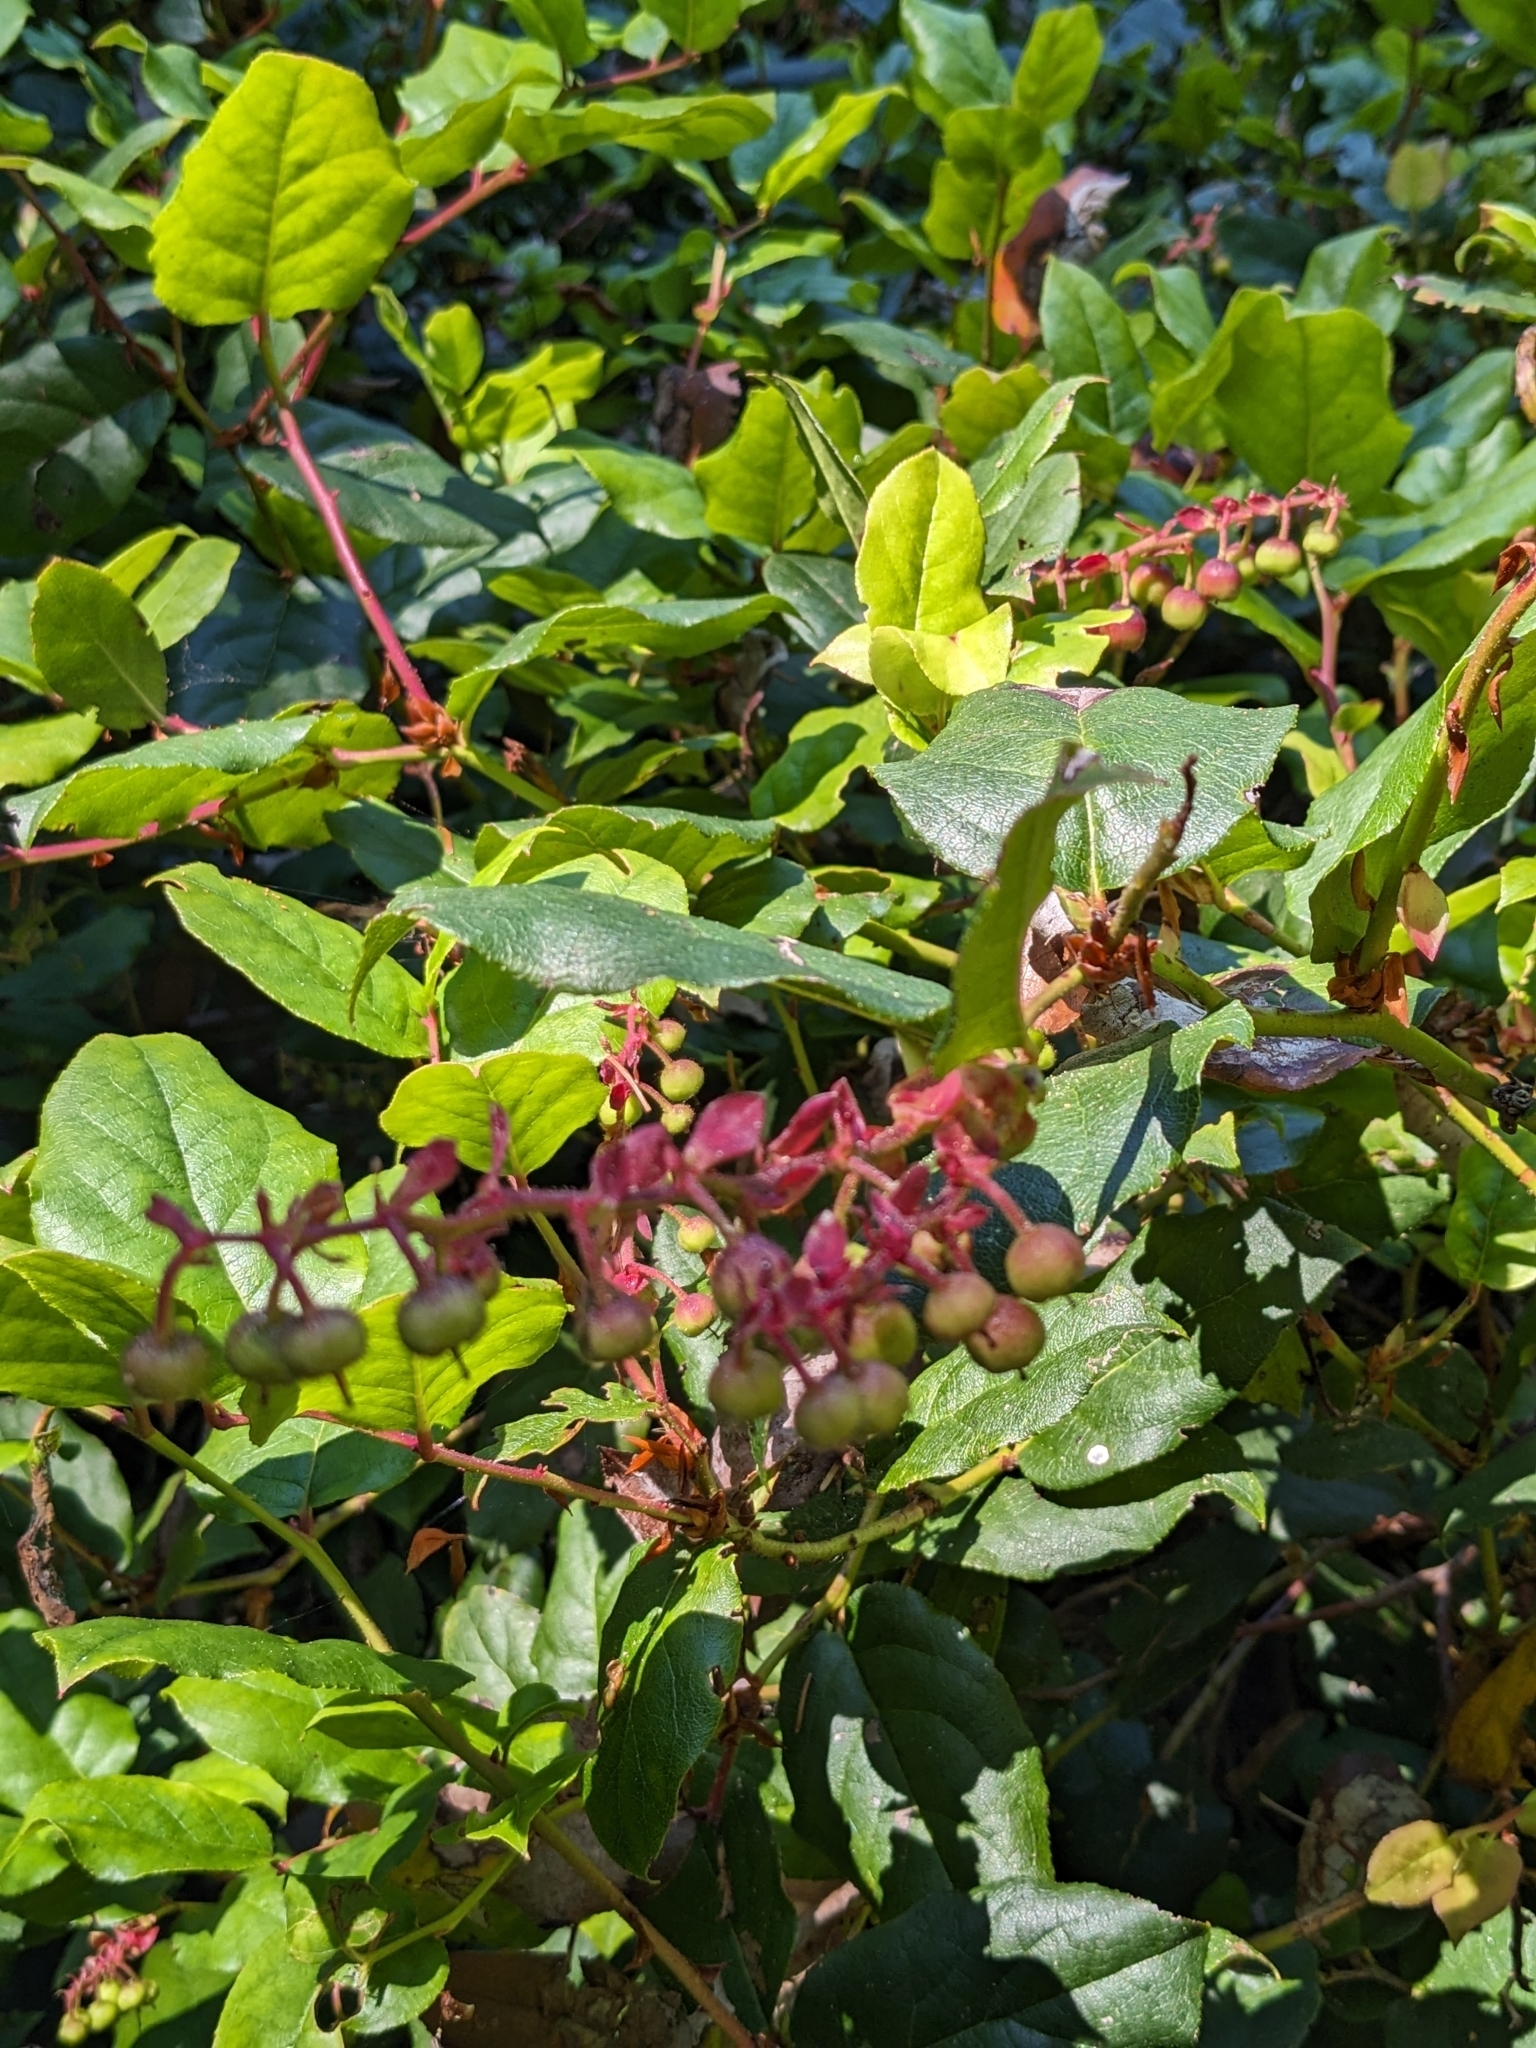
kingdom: Plantae
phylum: Tracheophyta
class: Magnoliopsida
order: Ericales
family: Ericaceae
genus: Gaultheria
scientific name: Gaultheria shallon
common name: Shallon
